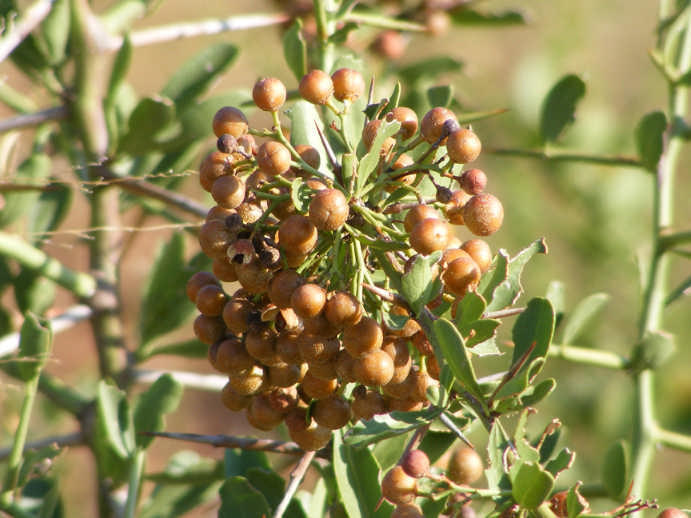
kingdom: Plantae
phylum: Tracheophyta
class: Magnoliopsida
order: Celastrales
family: Celastraceae
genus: Gymnosporia
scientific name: Gymnosporia buxifolia
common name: Common spike-thorn
